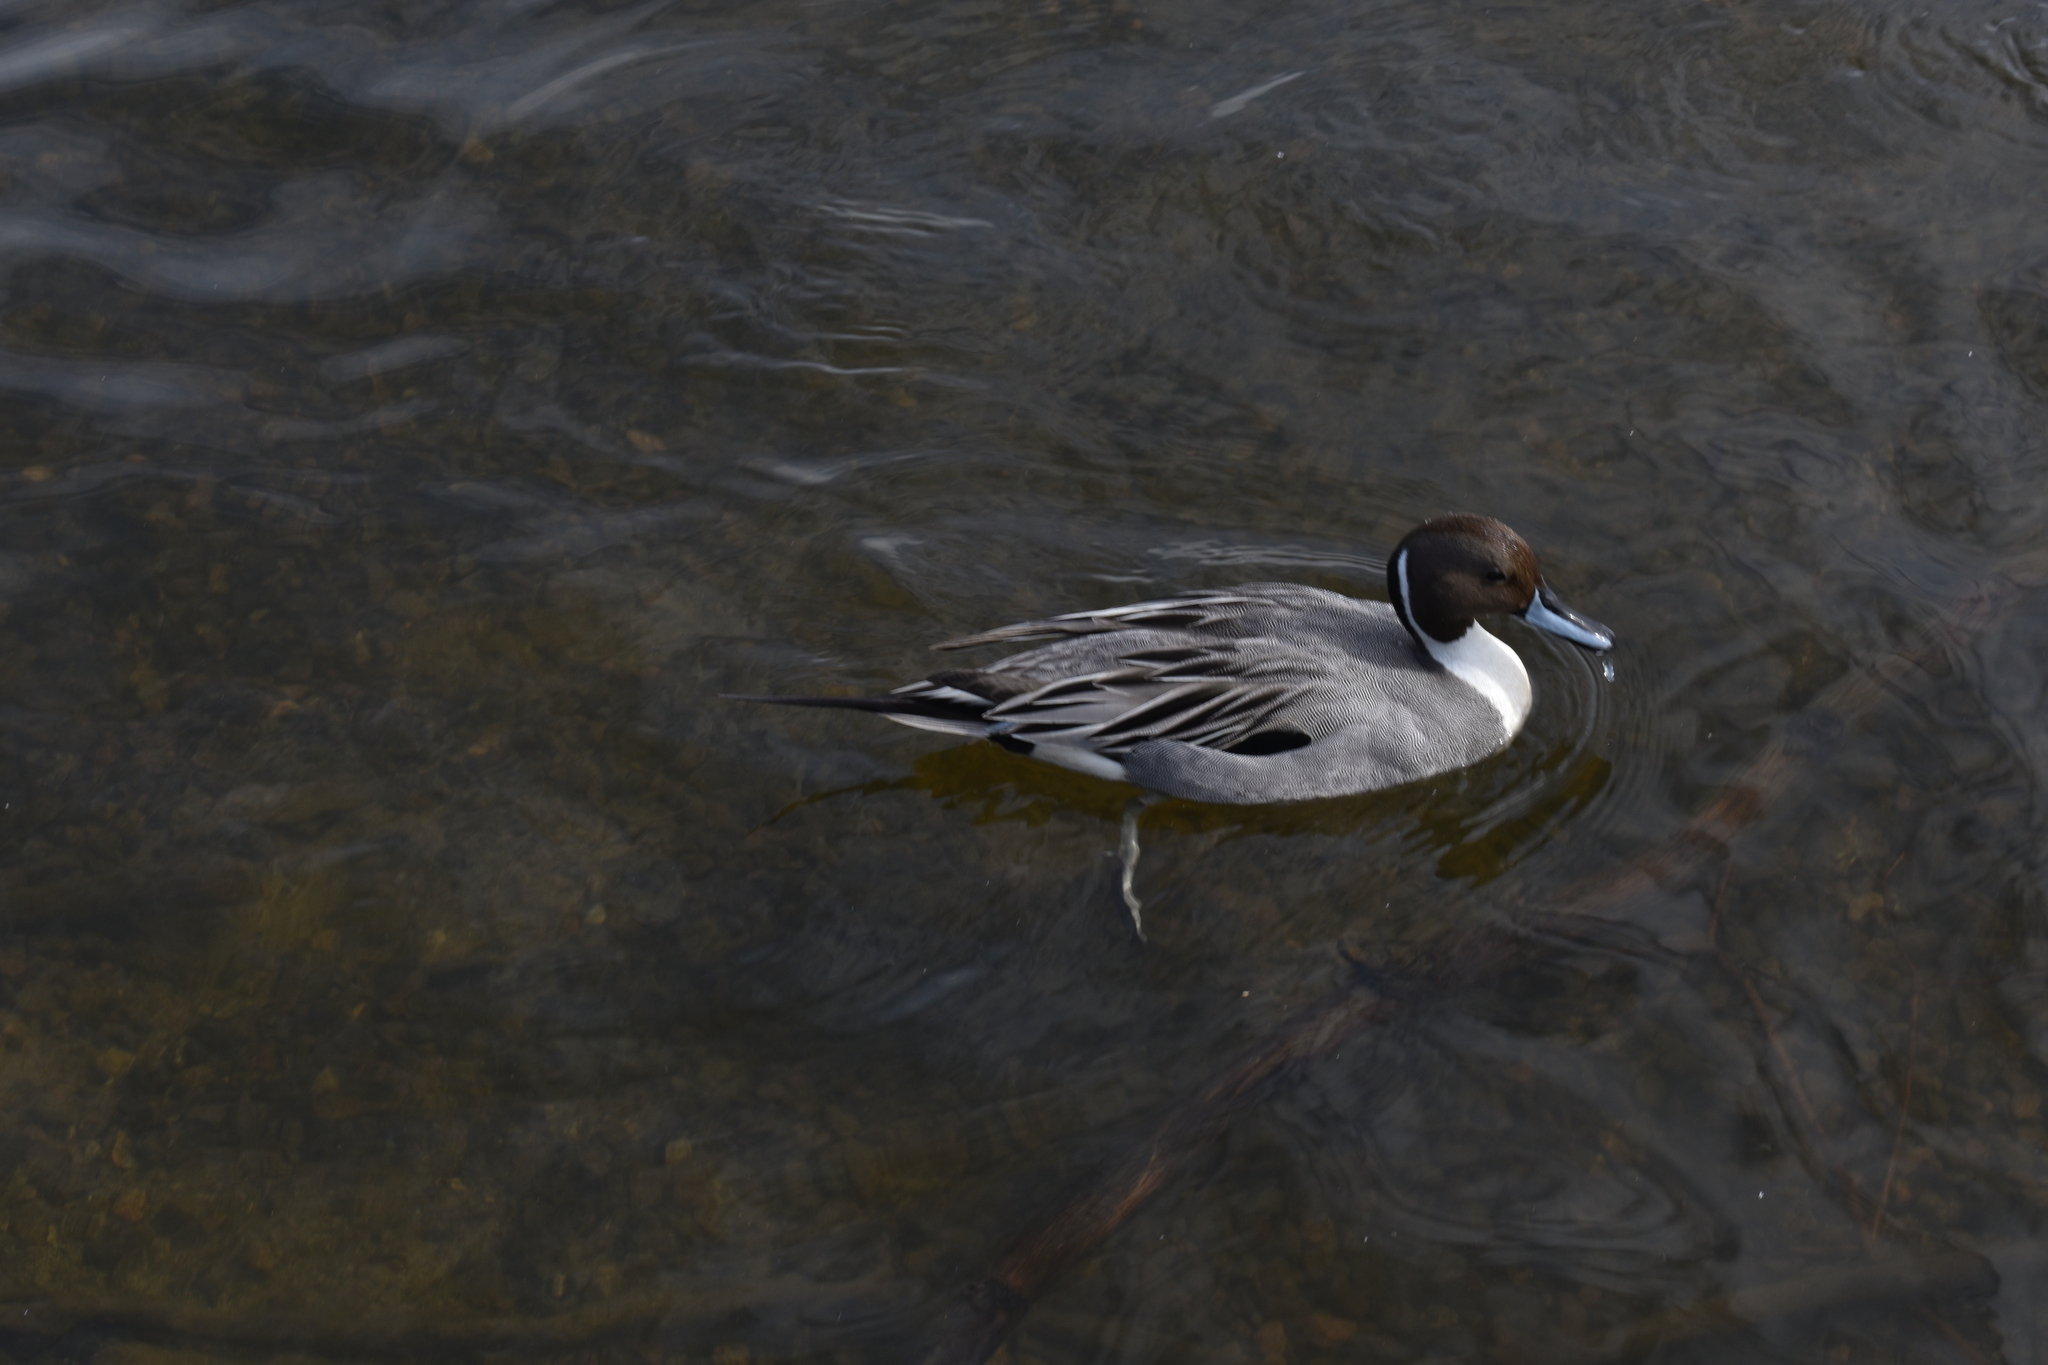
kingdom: Animalia
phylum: Chordata
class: Aves
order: Anseriformes
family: Anatidae
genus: Anas
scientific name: Anas acuta
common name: Northern pintail
